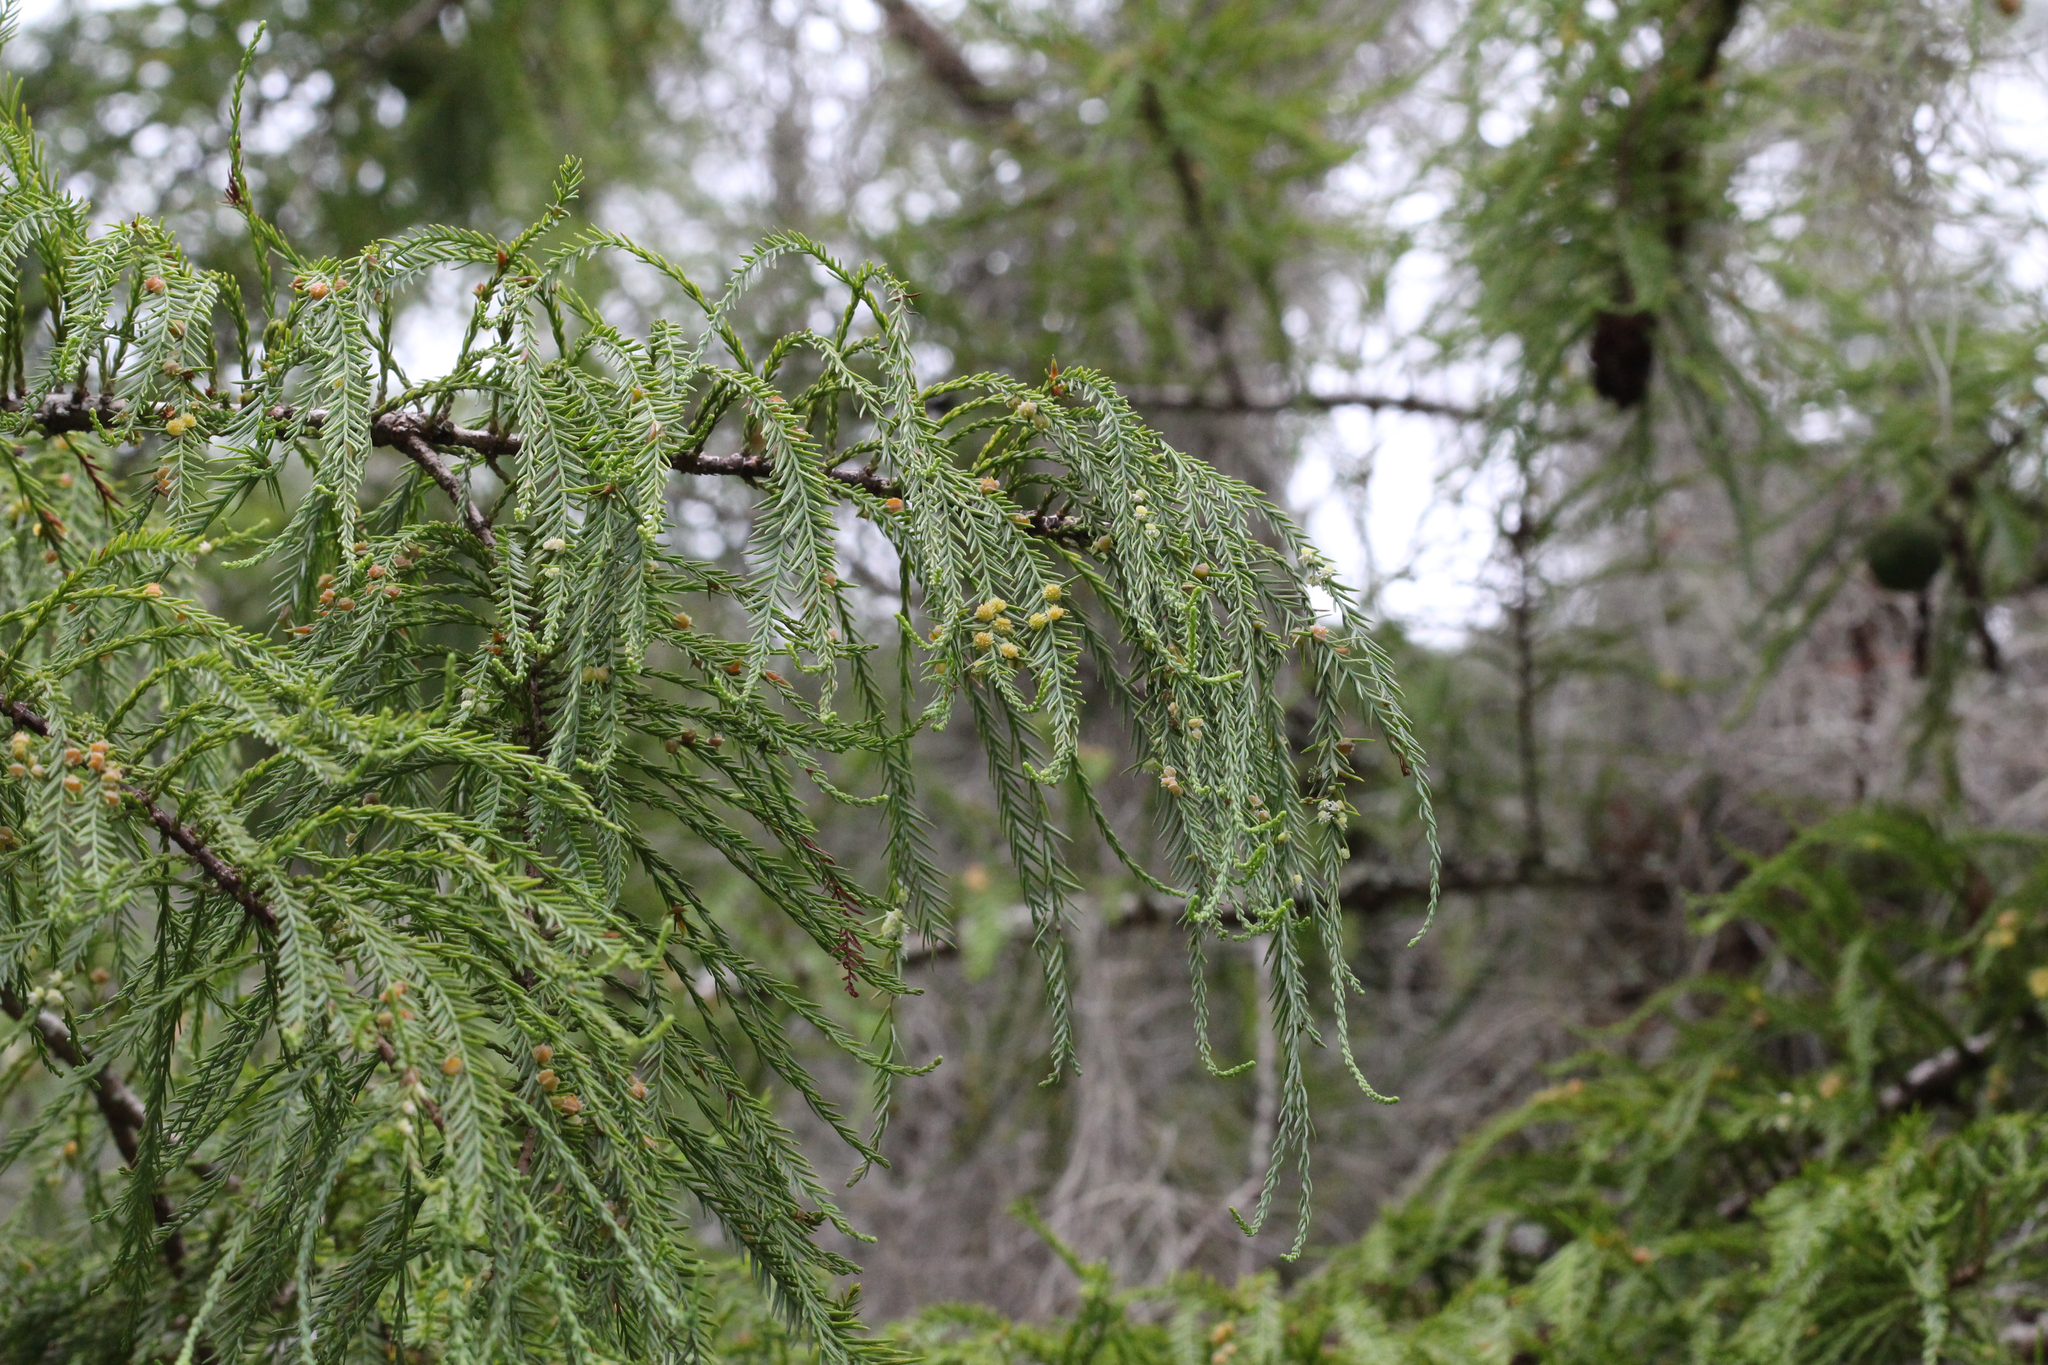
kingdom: Plantae
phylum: Tracheophyta
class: Pinopsida
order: Pinales
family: Cupressaceae
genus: Taxodium
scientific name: Taxodium distichum
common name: Bald cypress
